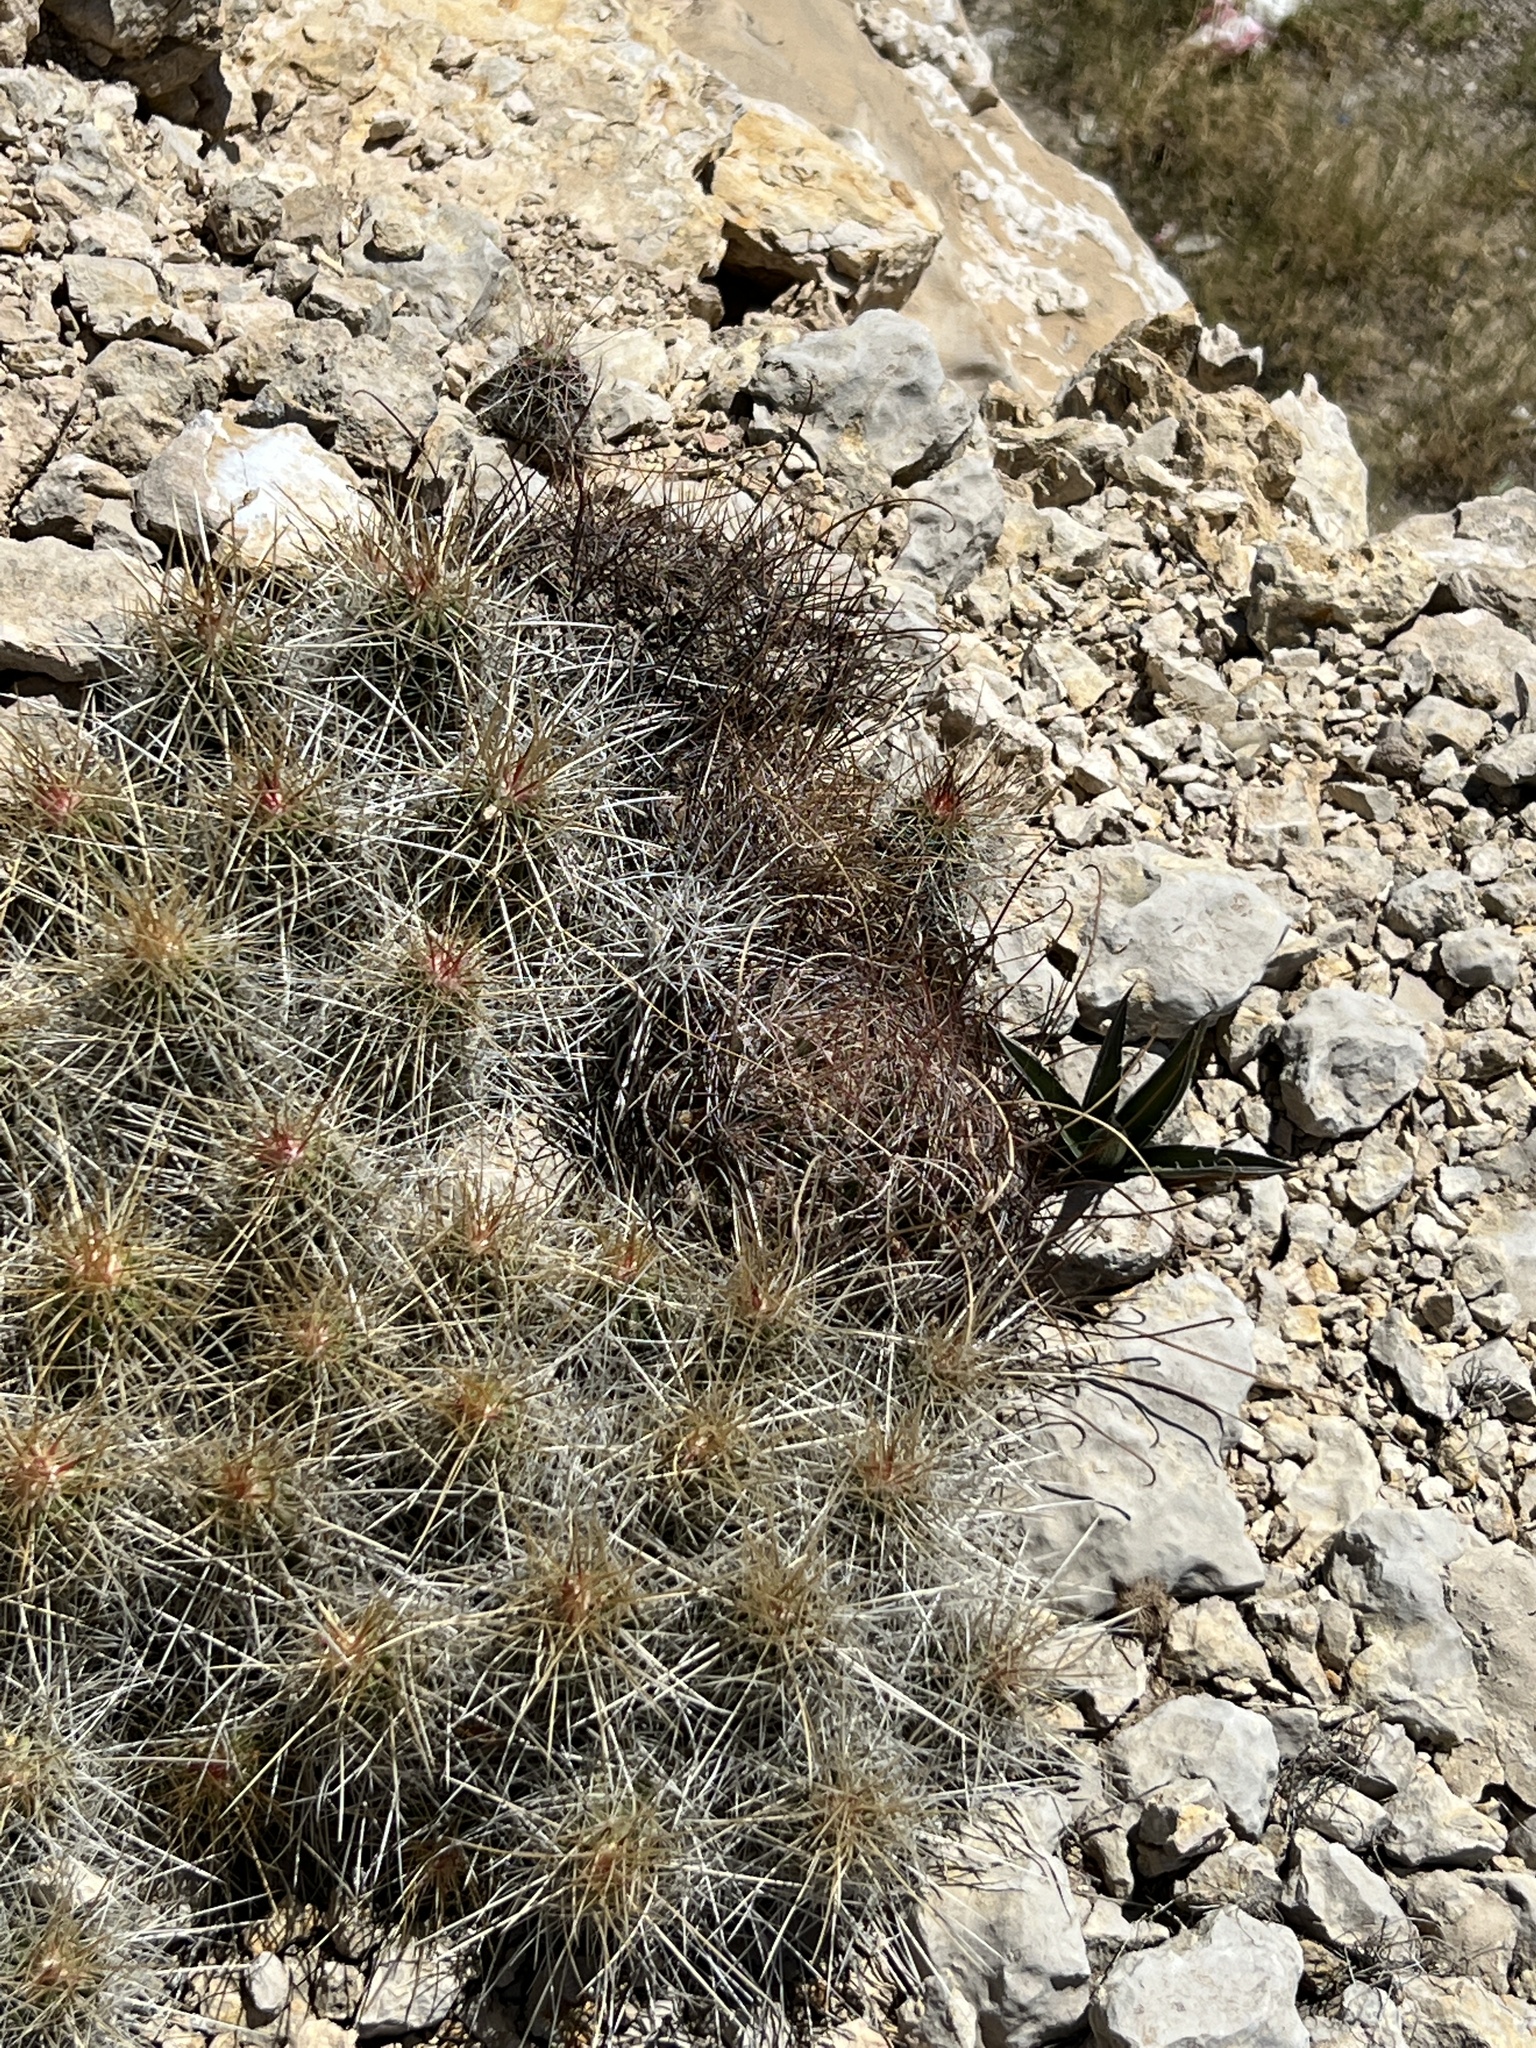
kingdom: Plantae
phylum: Tracheophyta
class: Magnoliopsida
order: Caryophyllales
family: Cactaceae
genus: Echinocereus
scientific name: Echinocereus stramineus
